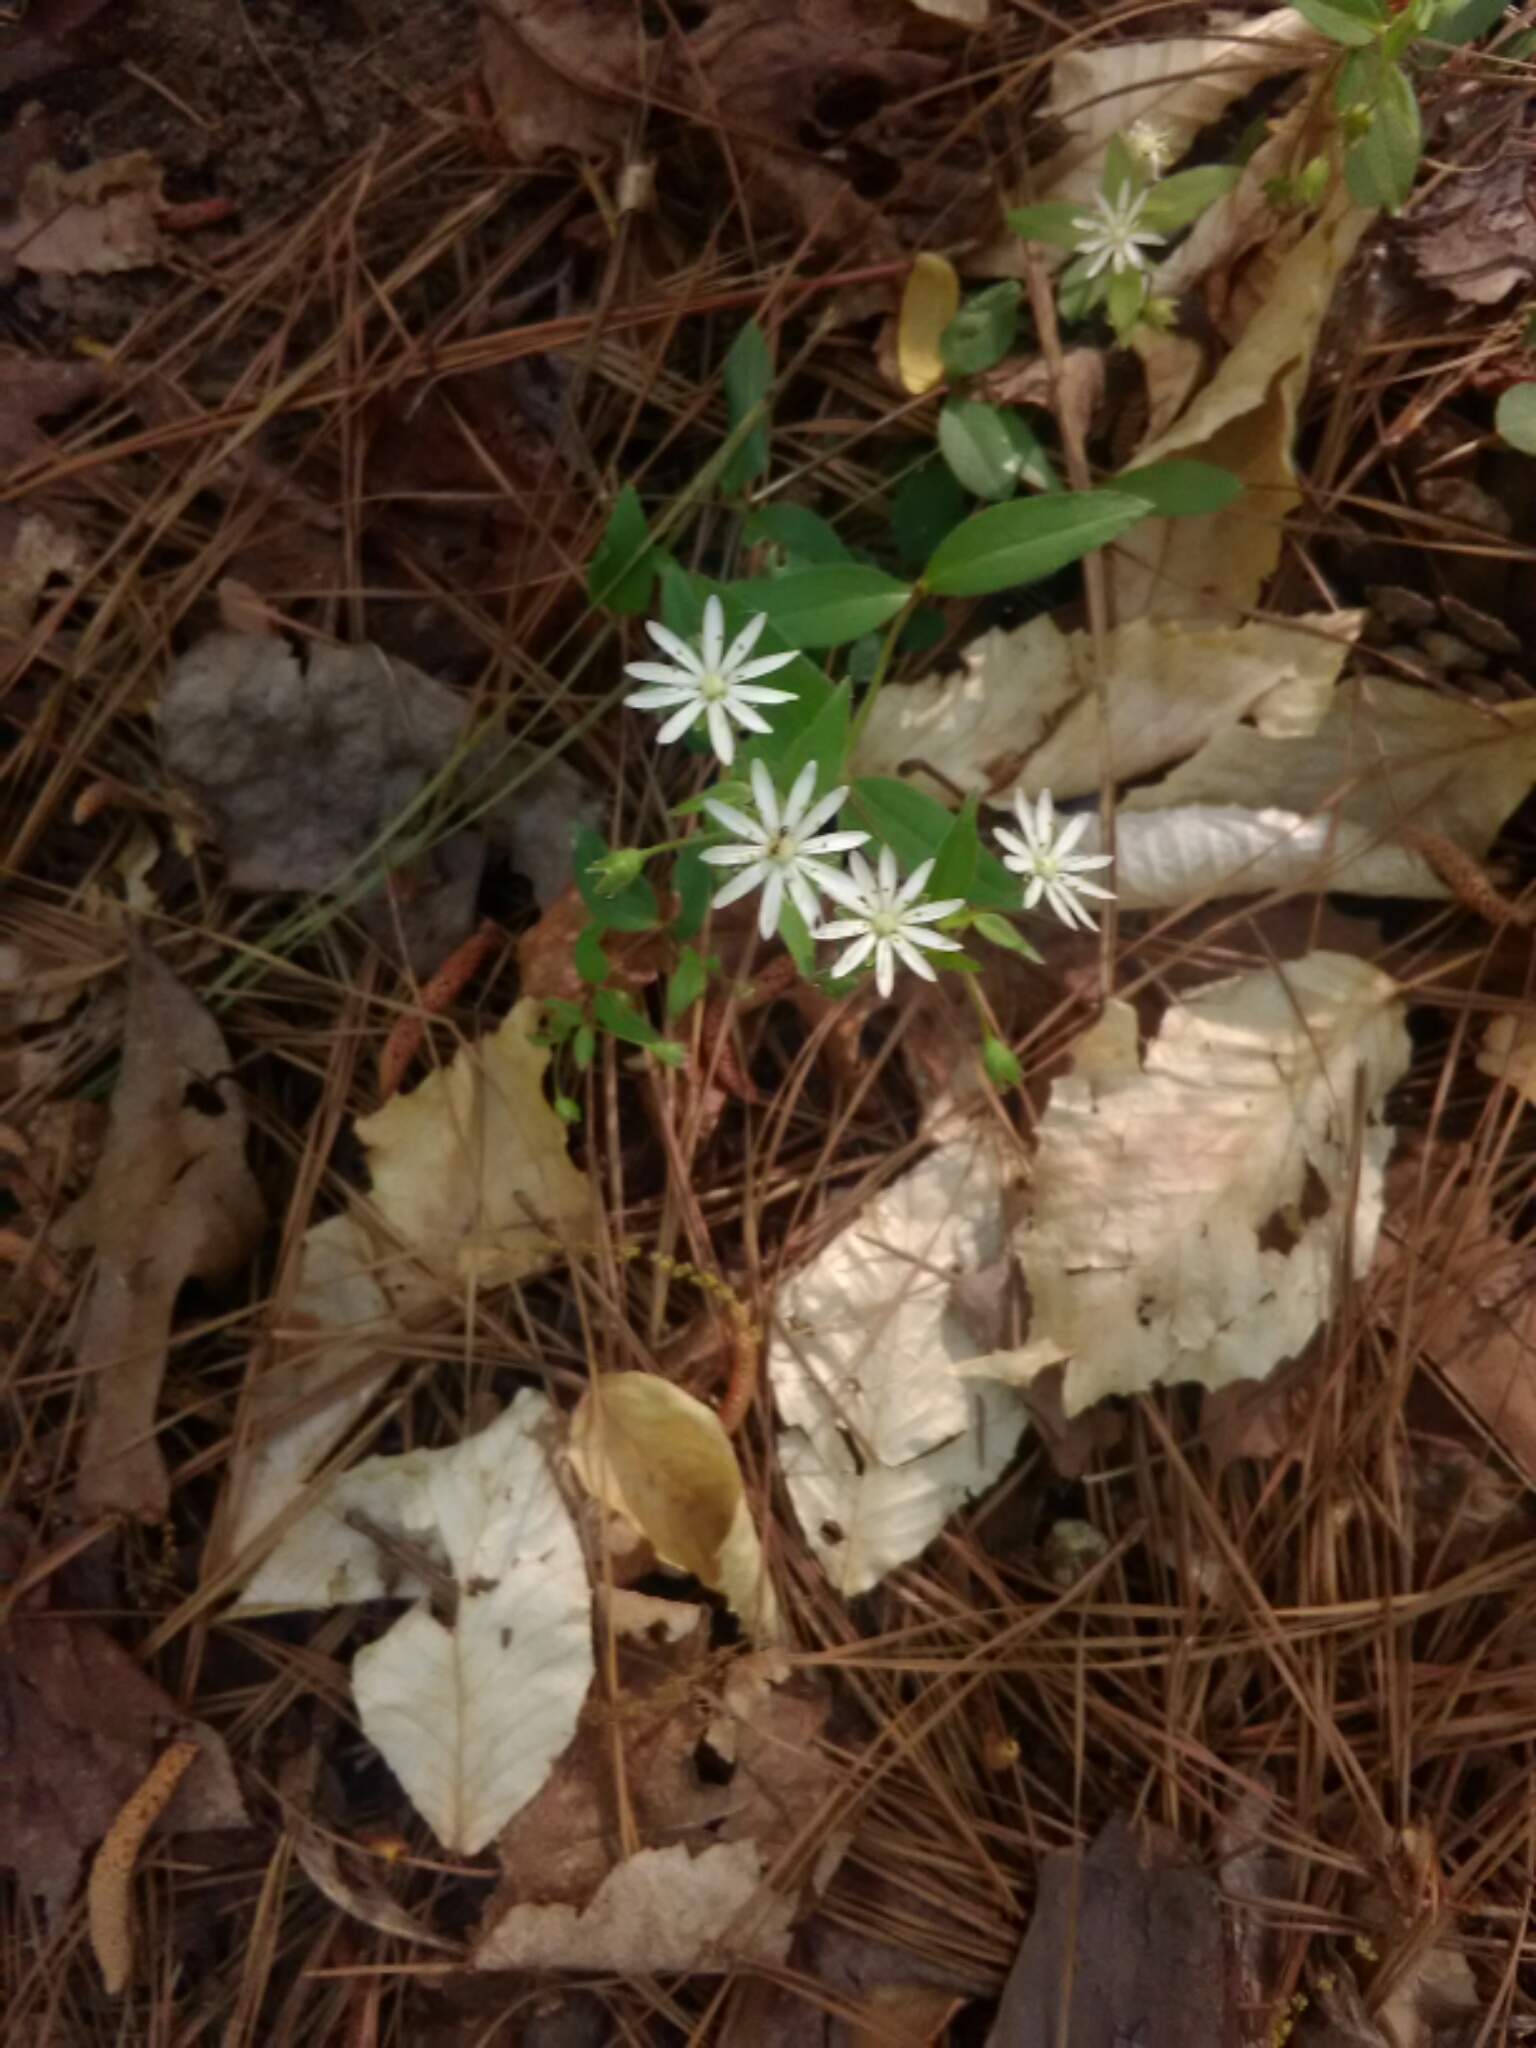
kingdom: Plantae
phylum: Tracheophyta
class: Magnoliopsida
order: Caryophyllales
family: Caryophyllaceae
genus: Stellaria
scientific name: Stellaria pubera
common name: Star chickweed
